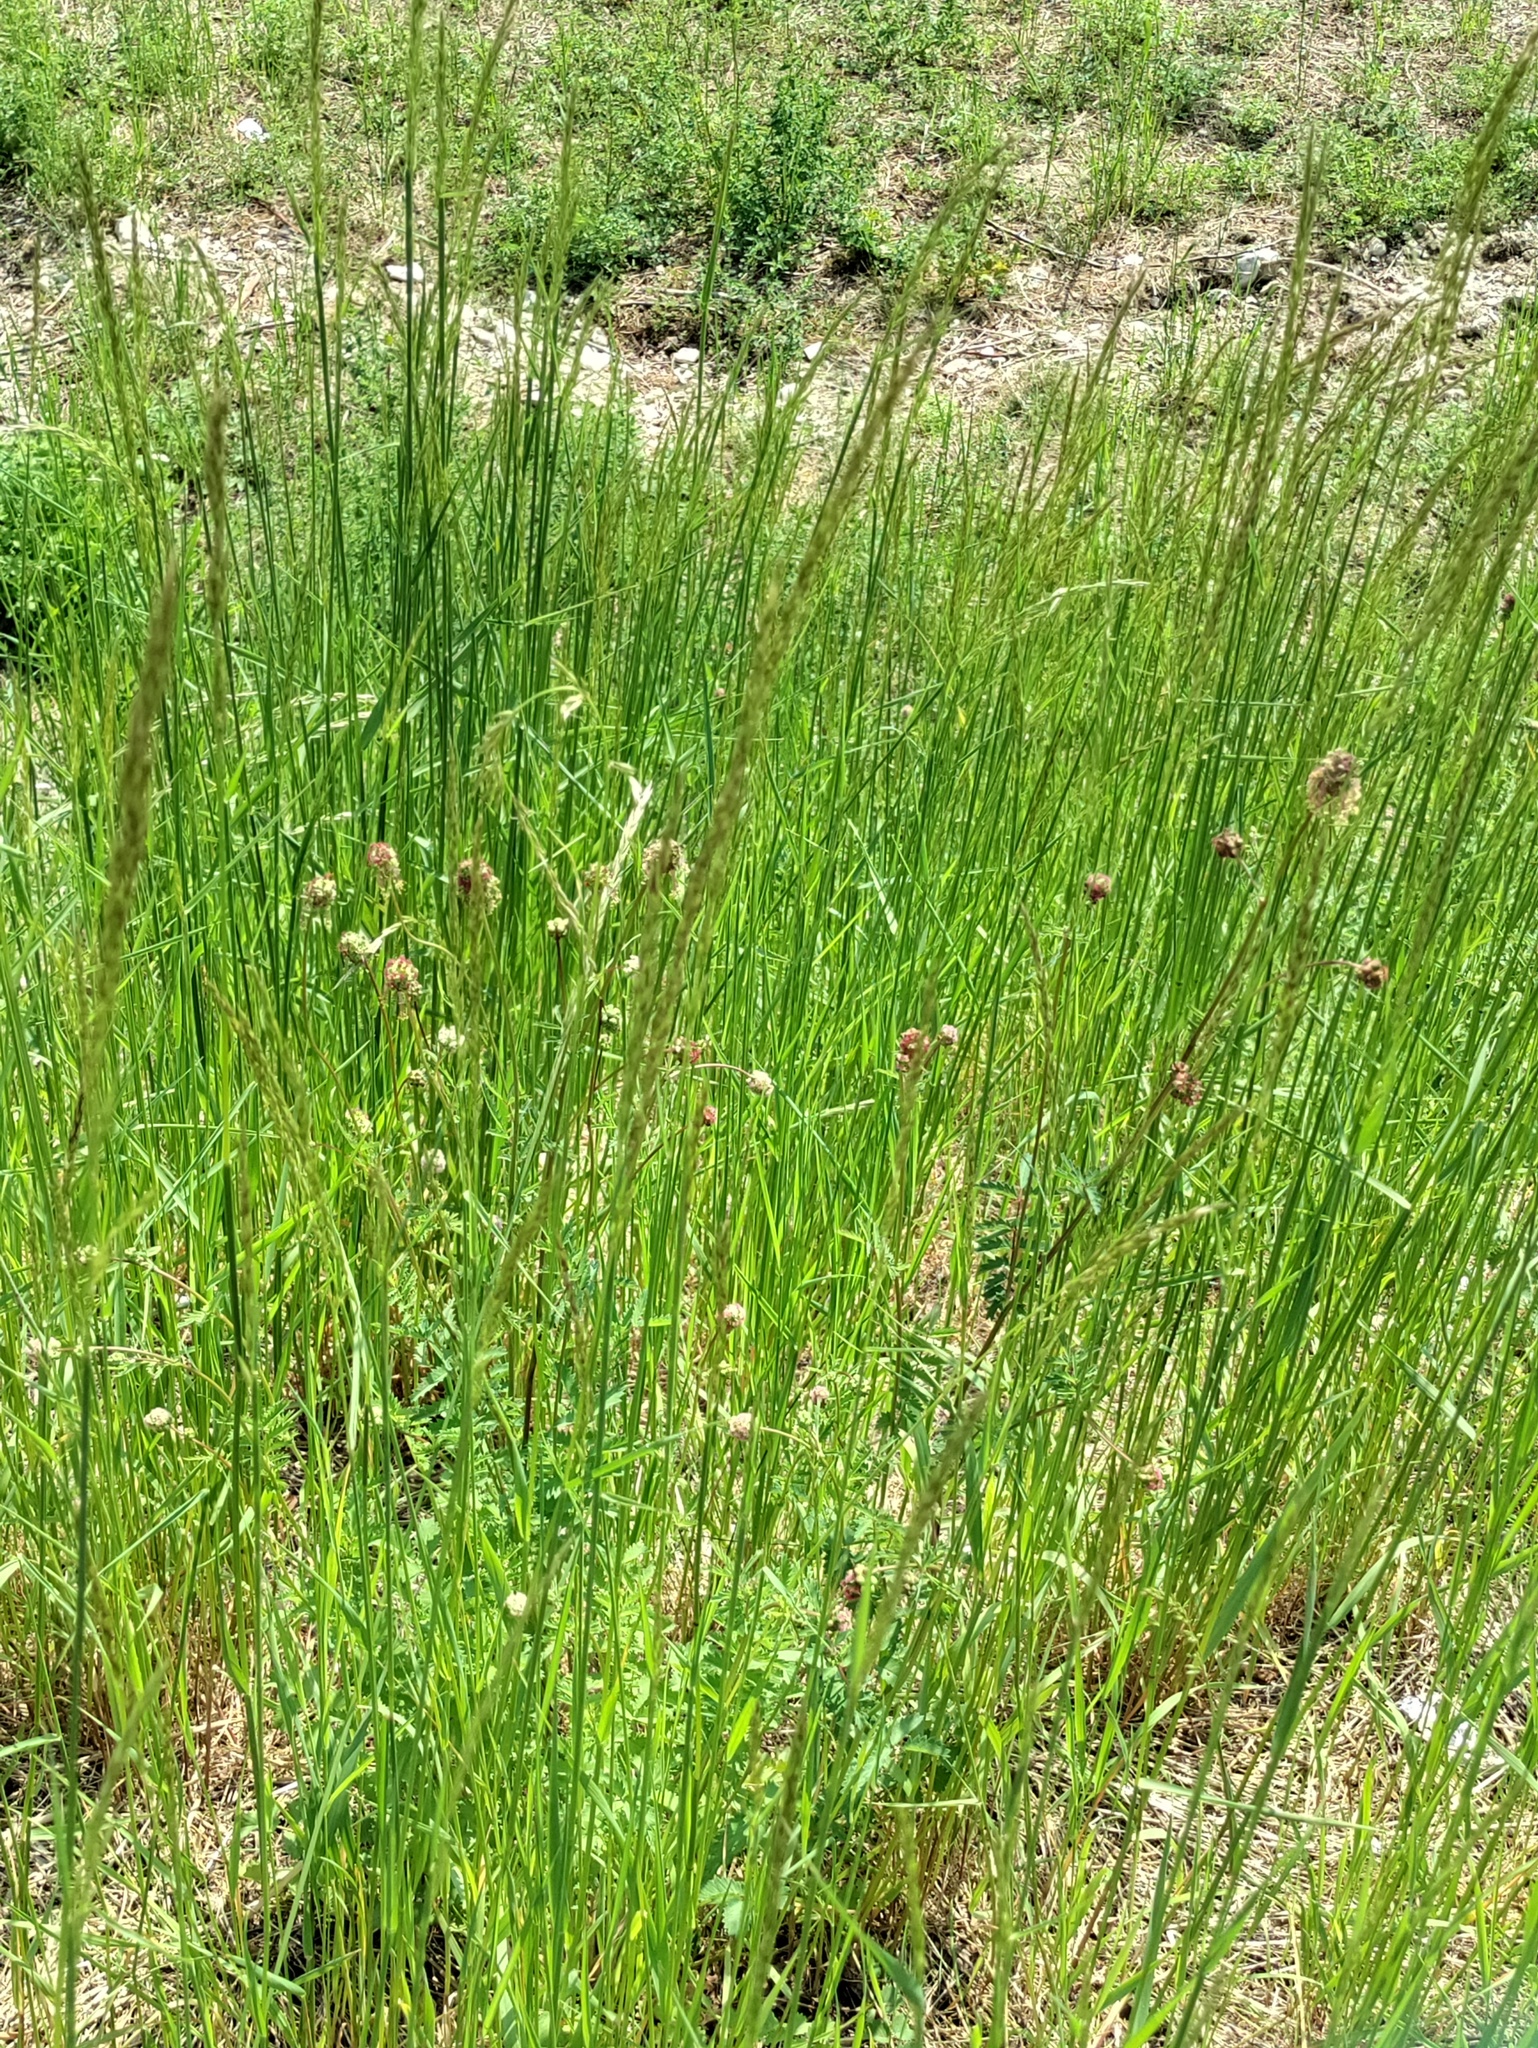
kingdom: Plantae
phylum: Tracheophyta
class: Magnoliopsida
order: Rosales
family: Rosaceae
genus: Poterium
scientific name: Poterium sanguisorba
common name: Salad burnet
